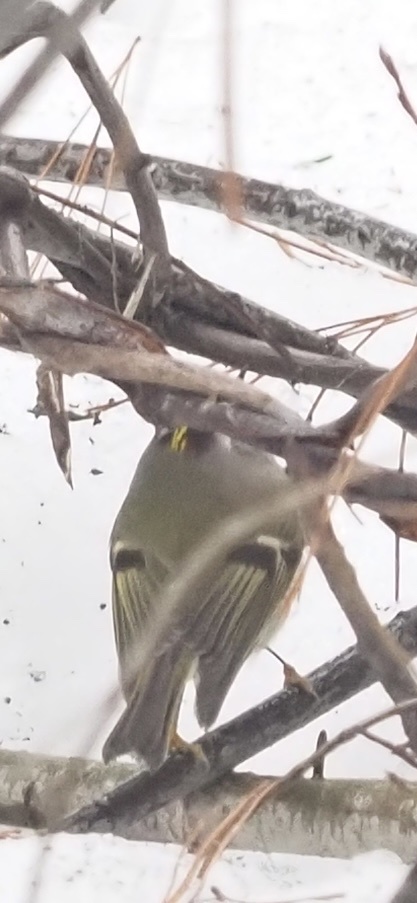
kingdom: Animalia
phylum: Chordata
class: Aves
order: Passeriformes
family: Regulidae
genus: Regulus
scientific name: Regulus satrapa
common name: Golden-crowned kinglet
